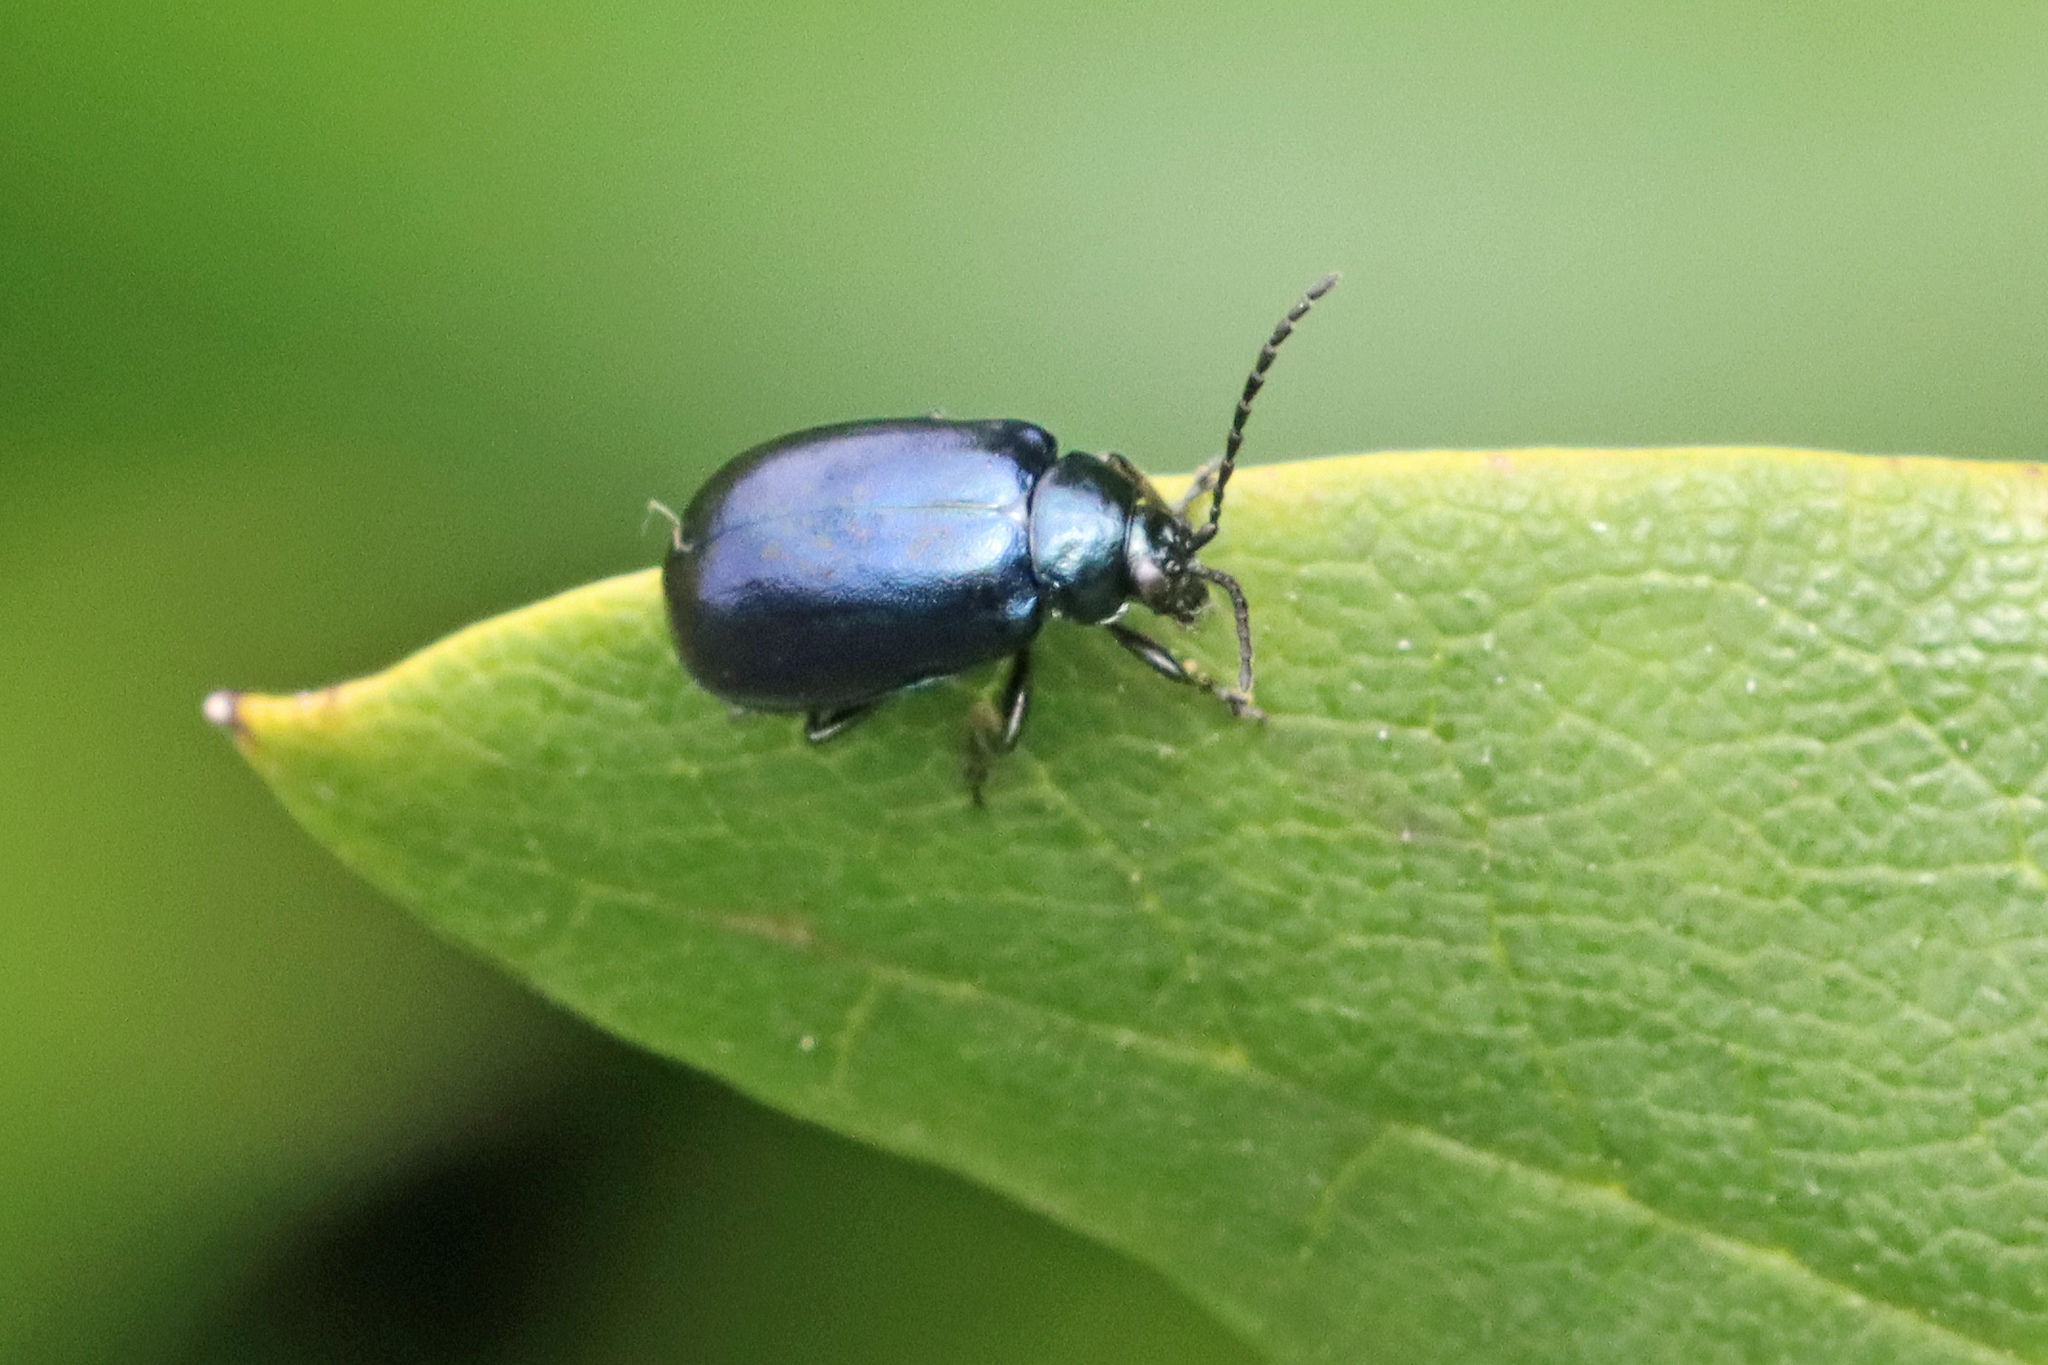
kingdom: Animalia
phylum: Arthropoda
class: Insecta
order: Coleoptera
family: Chrysomelidae
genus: Agelastica
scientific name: Agelastica alni
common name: Alder leaf beetle
